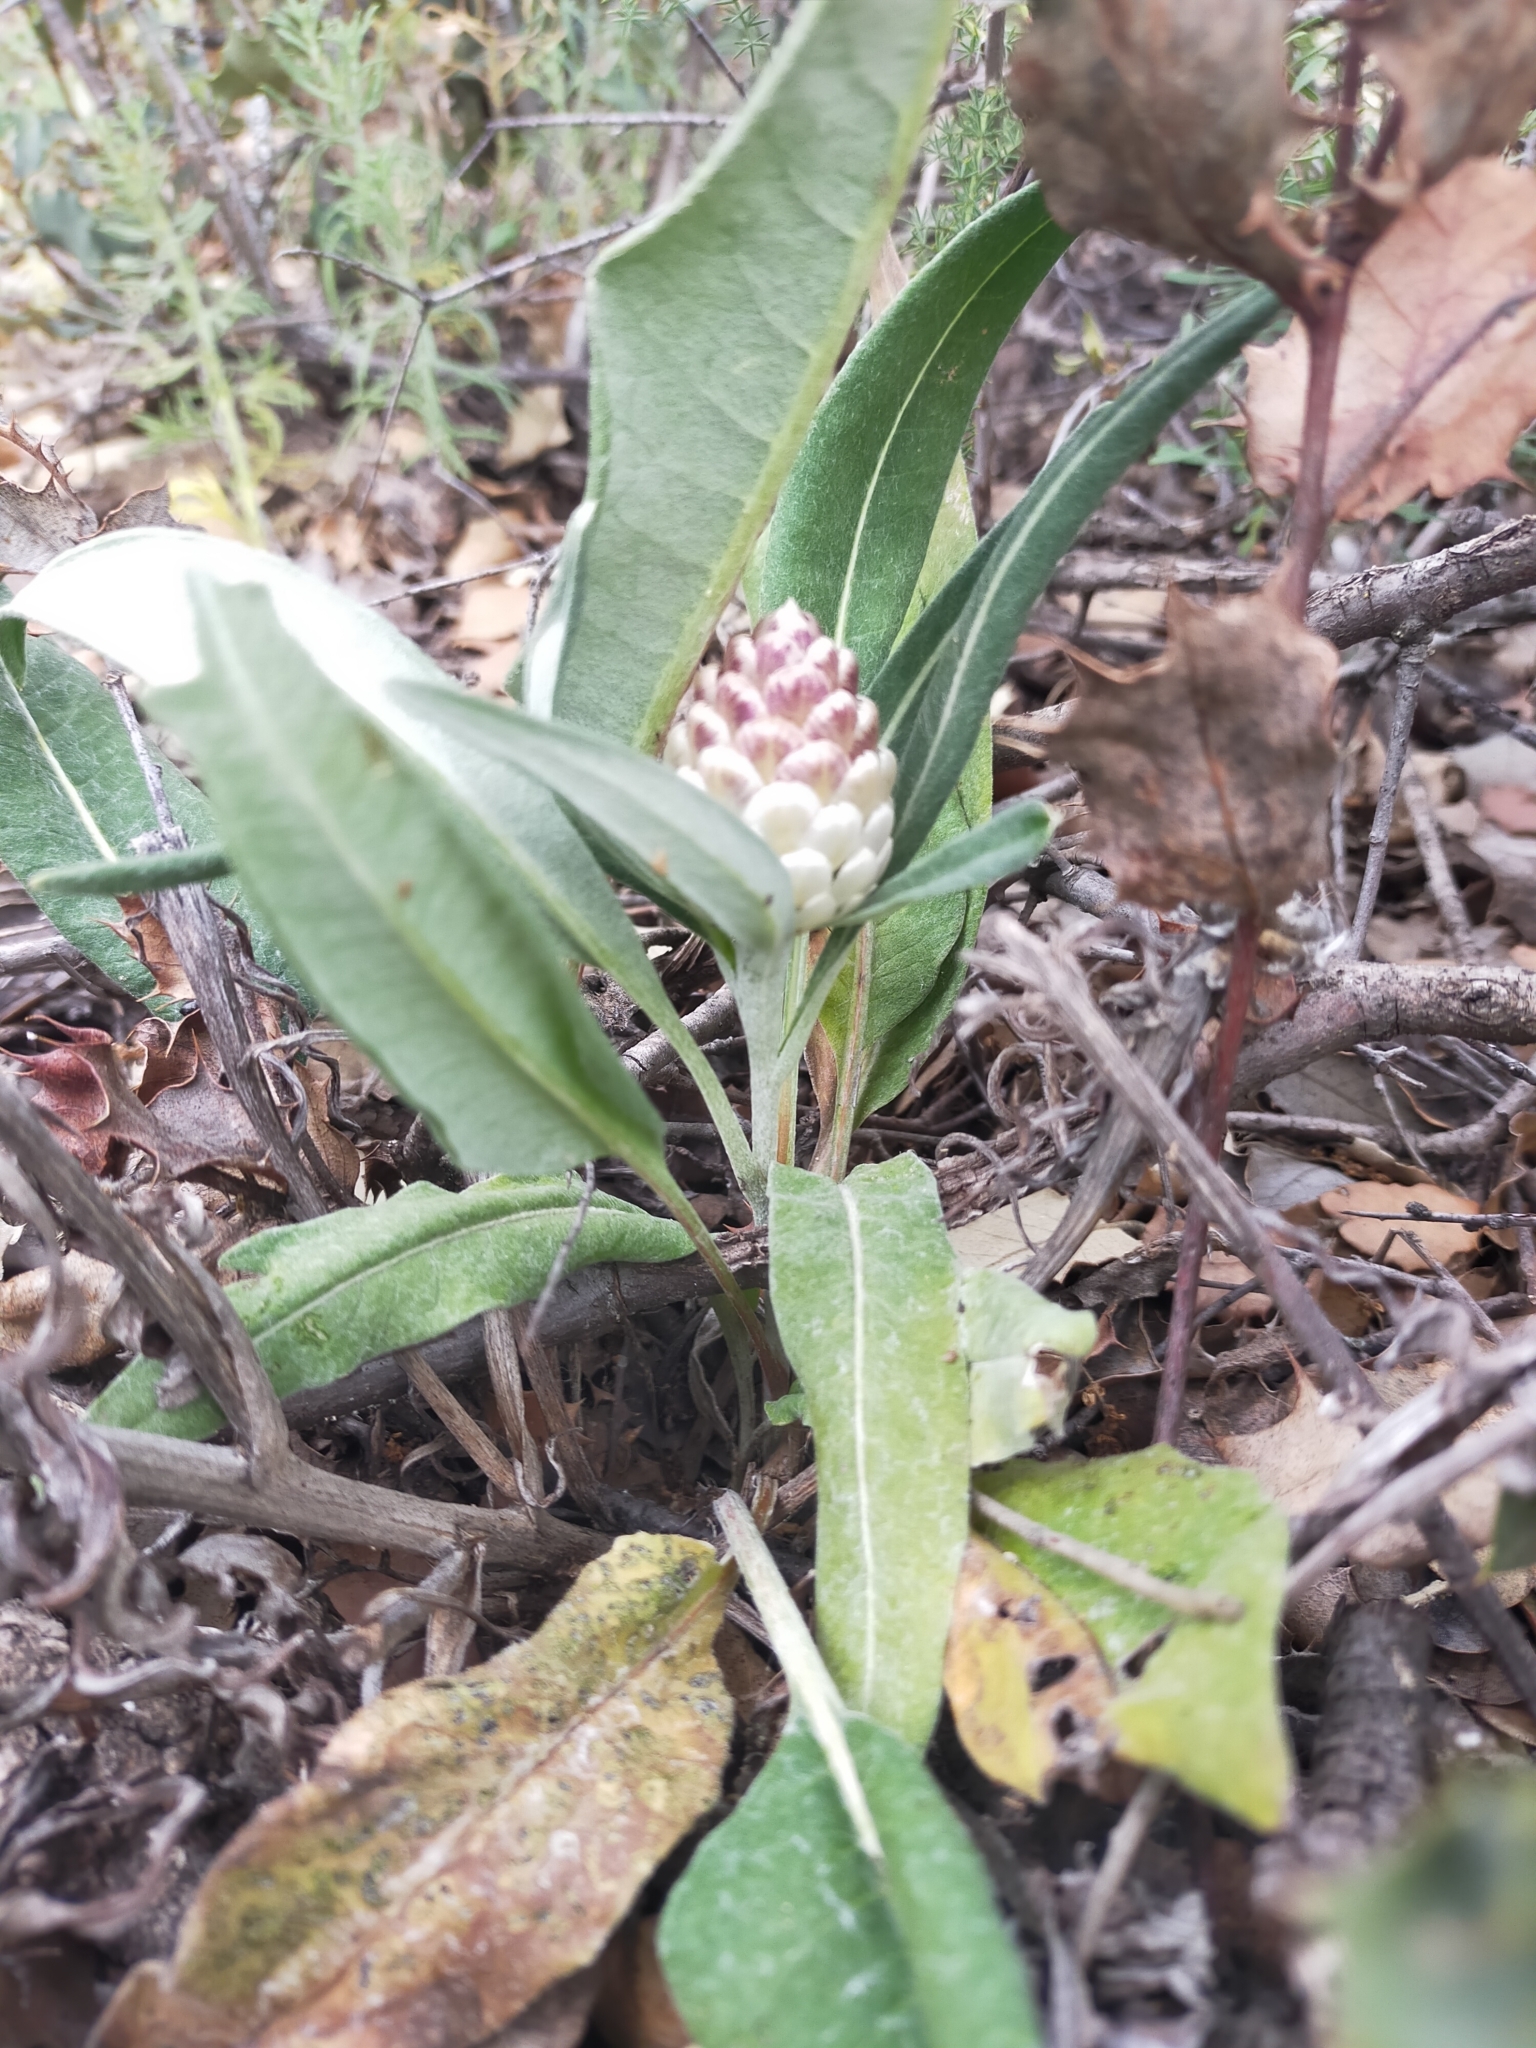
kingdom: Plantae
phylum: Tracheophyta
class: Magnoliopsida
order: Asterales
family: Asteraceae
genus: Leuzea
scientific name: Leuzea conifera
